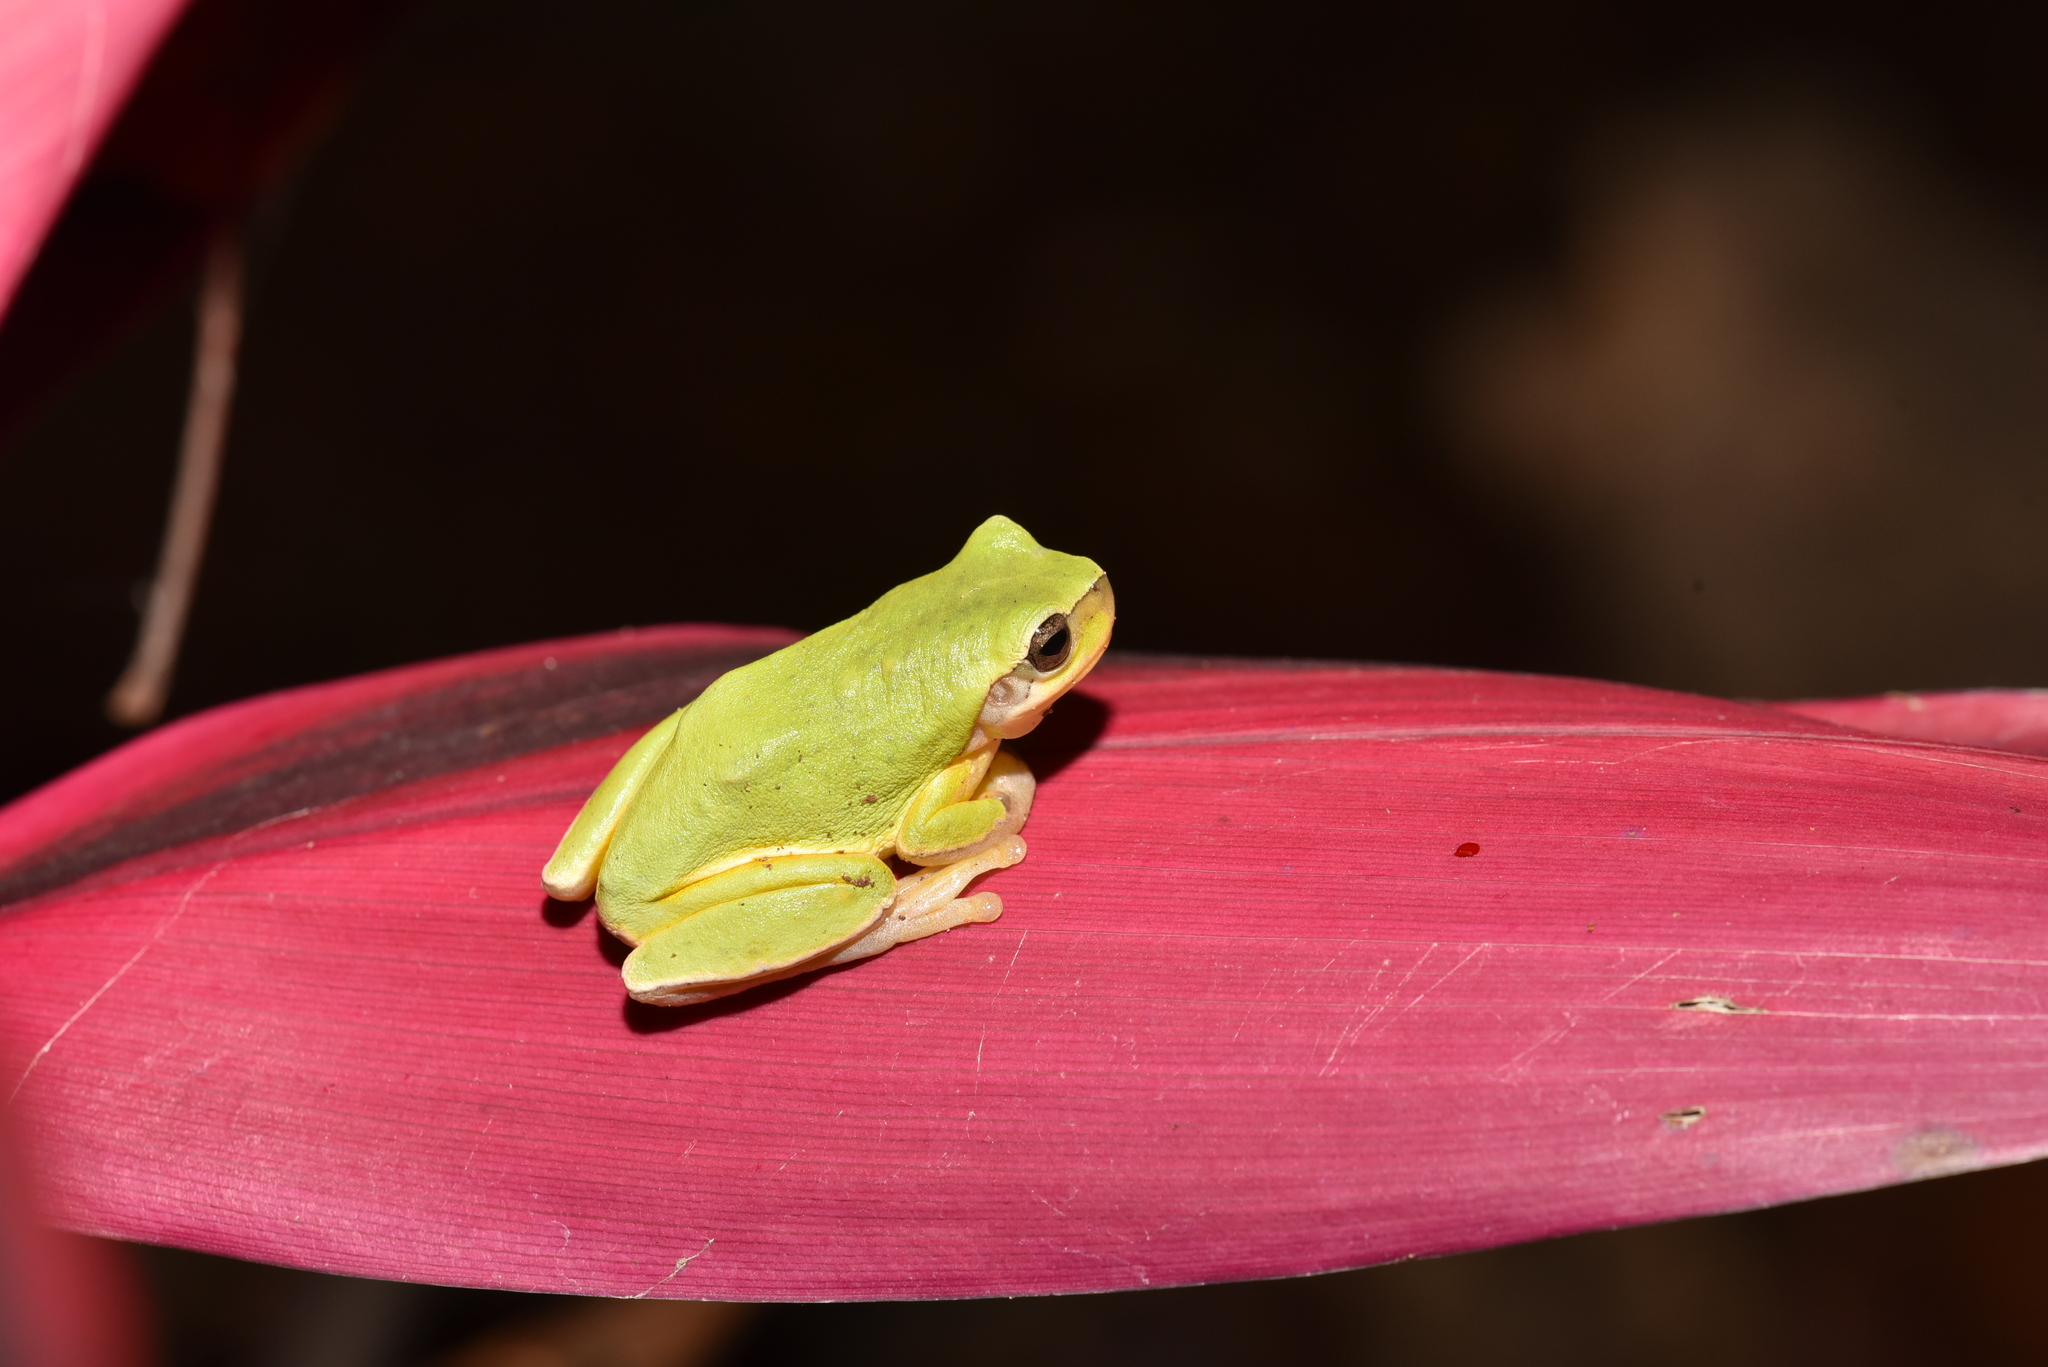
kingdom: Animalia
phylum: Chordata
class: Amphibia
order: Anura
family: Hylidae
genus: Hyla
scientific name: Hyla chinensis
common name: Common chinese treefrog
